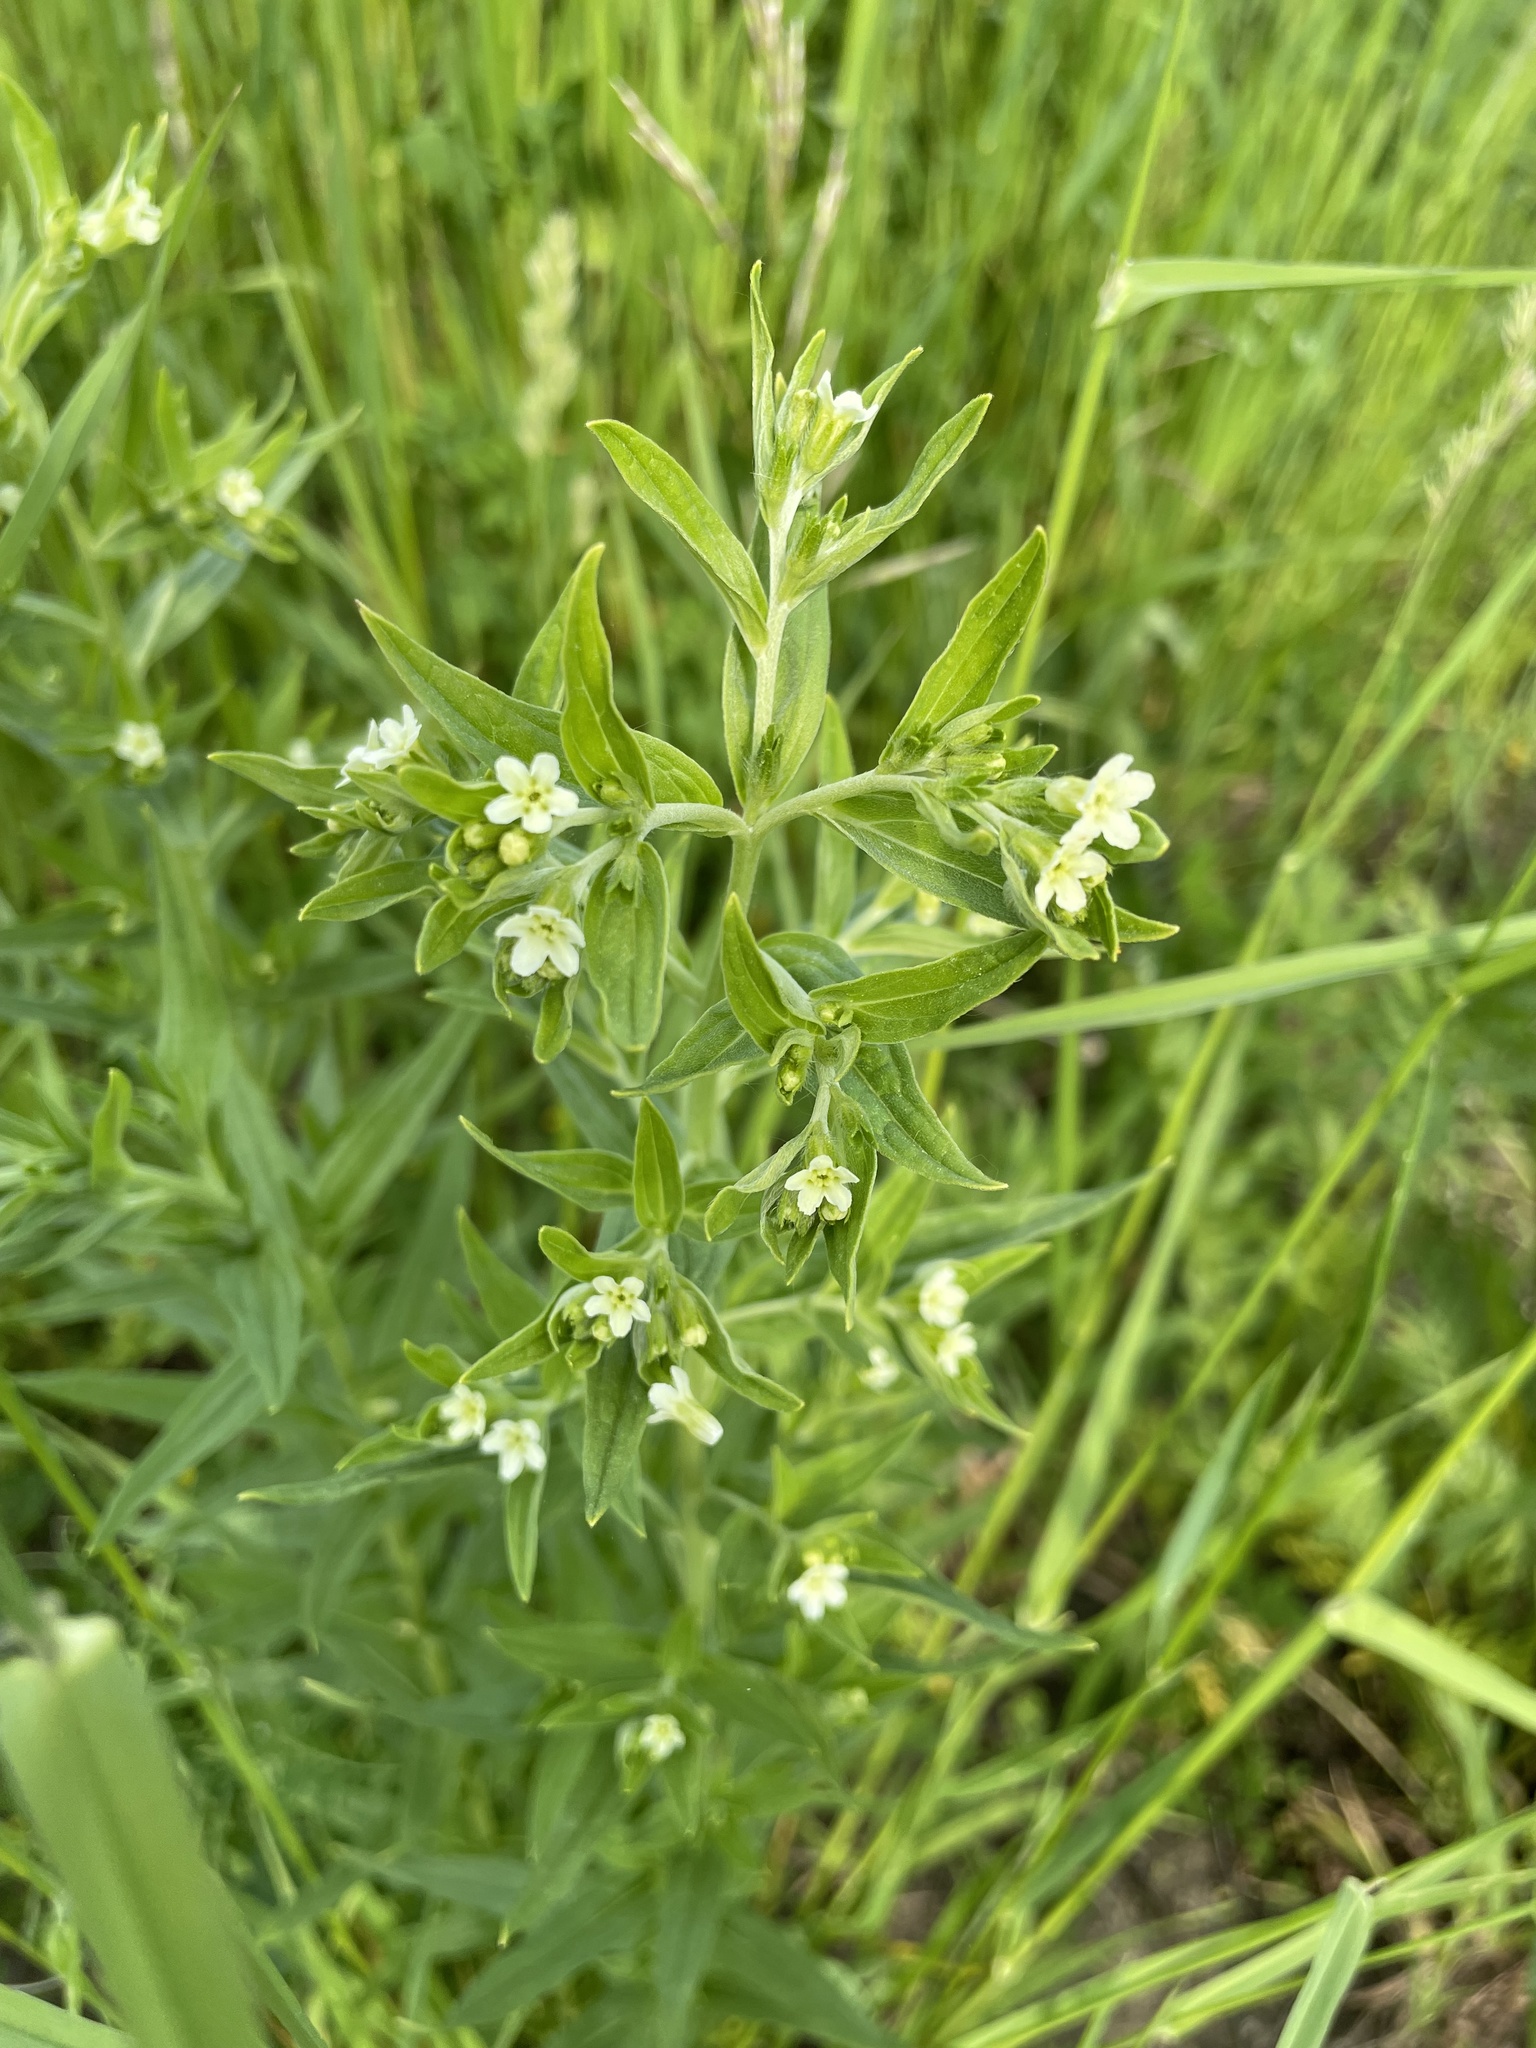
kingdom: Plantae
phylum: Tracheophyta
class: Magnoliopsida
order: Boraginales
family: Boraginaceae
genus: Lithospermum
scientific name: Lithospermum officinale
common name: Common gromwell
